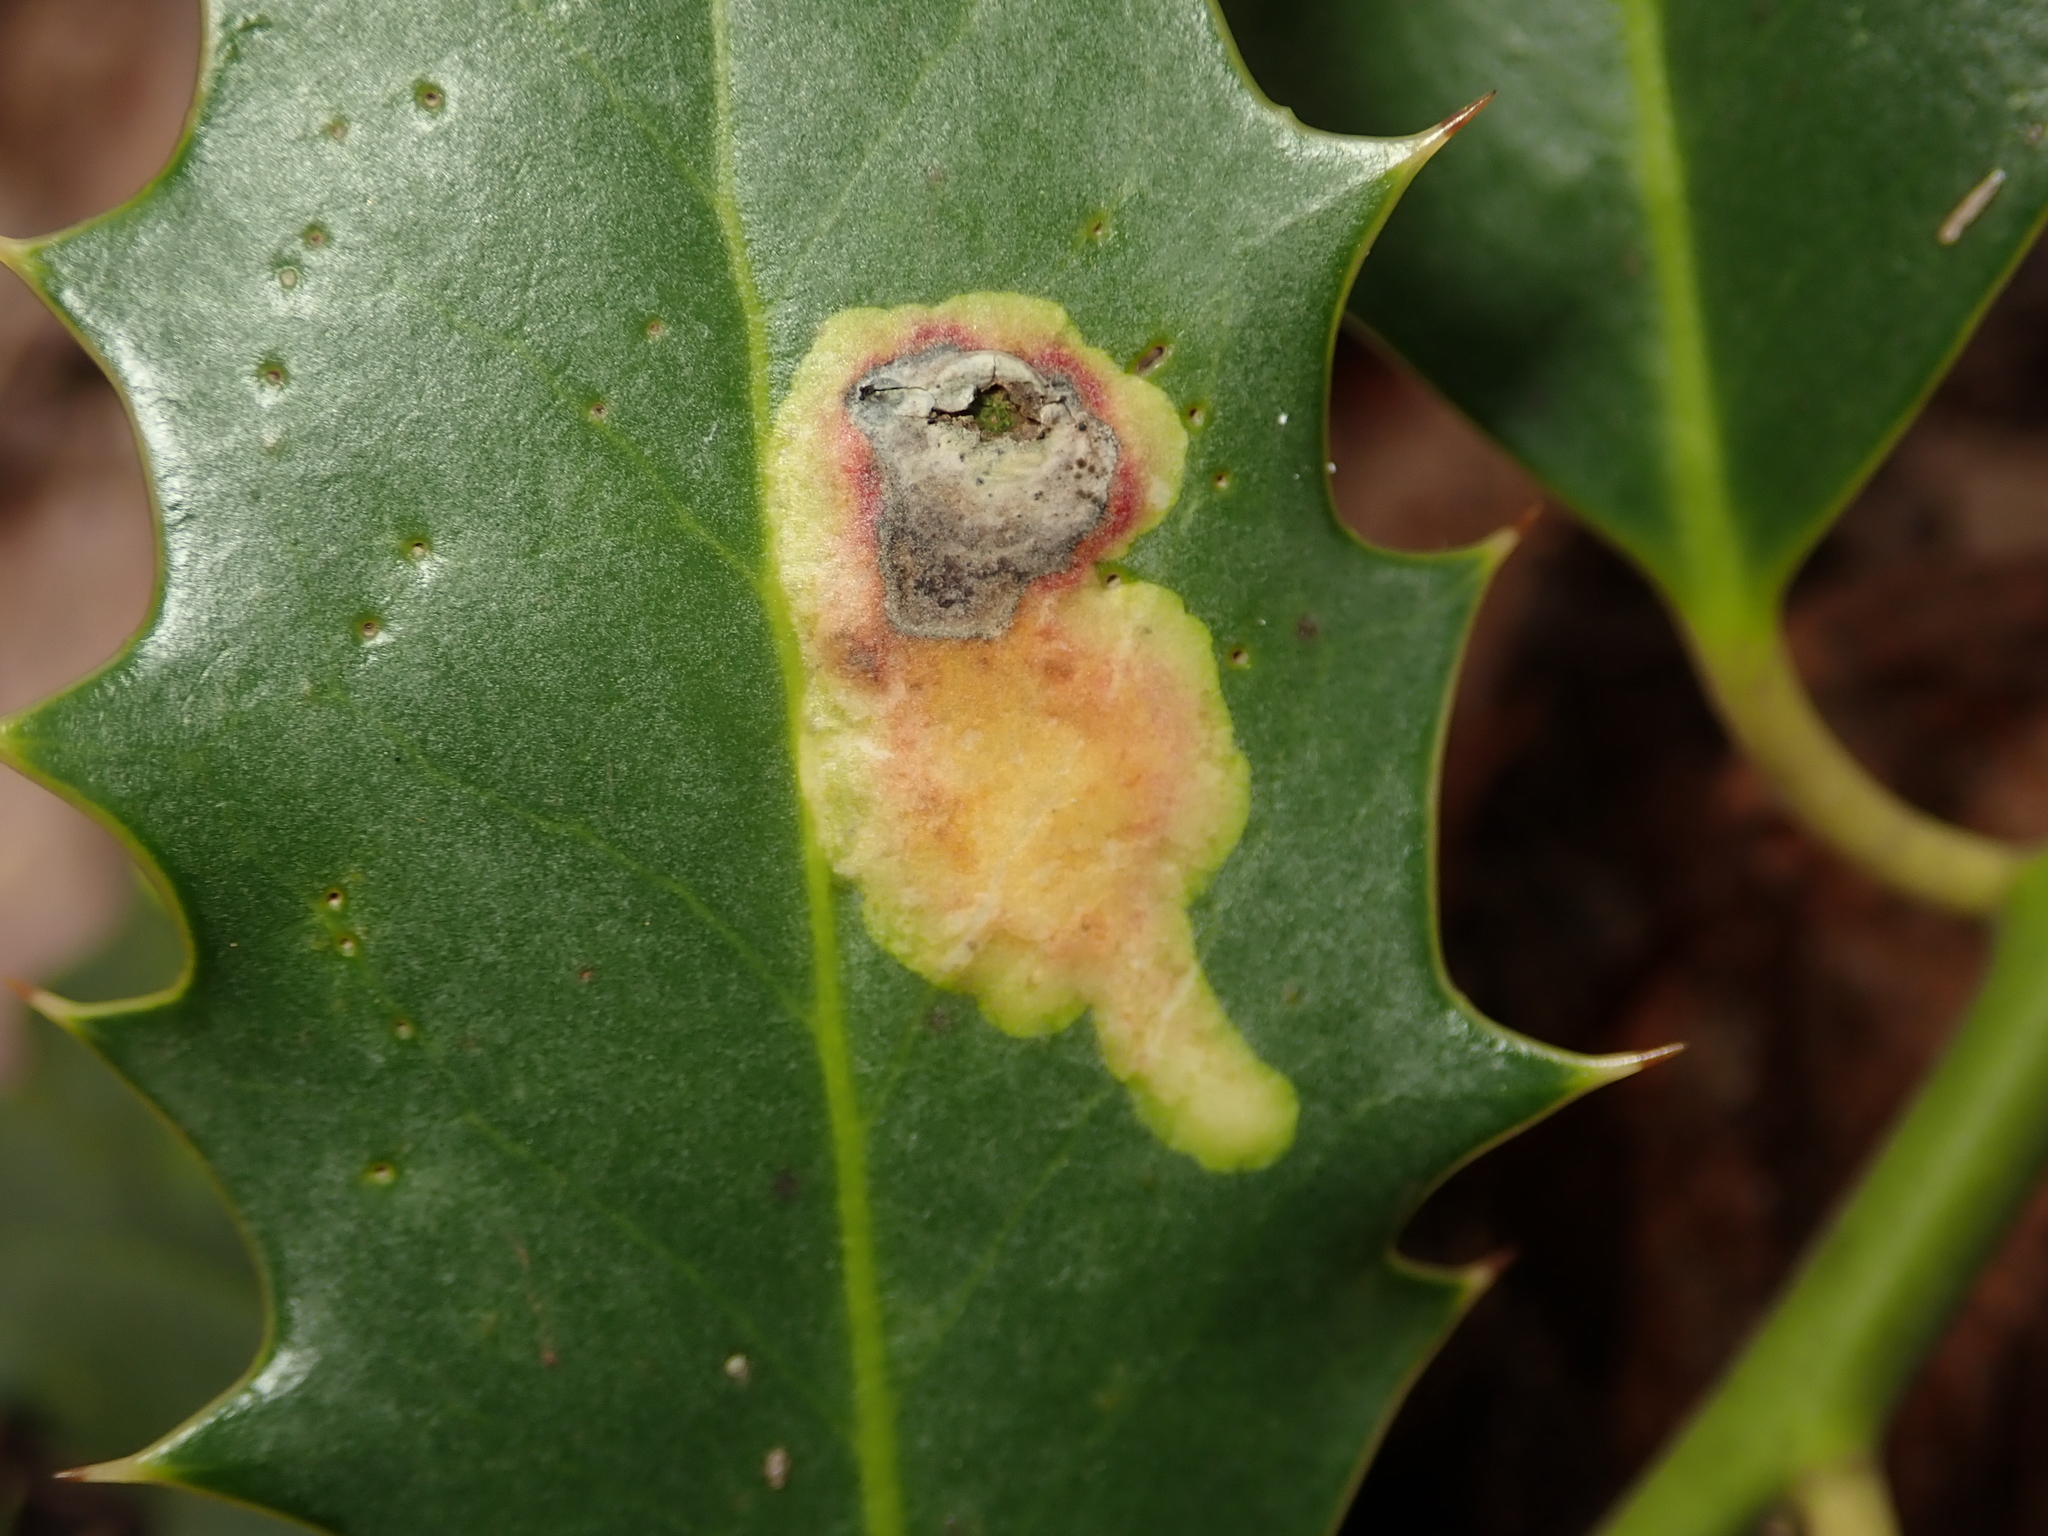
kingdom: Animalia
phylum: Arthropoda
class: Insecta
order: Diptera
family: Agromyzidae
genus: Phytomyza
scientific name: Phytomyza ilicis
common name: Holly leafminer
